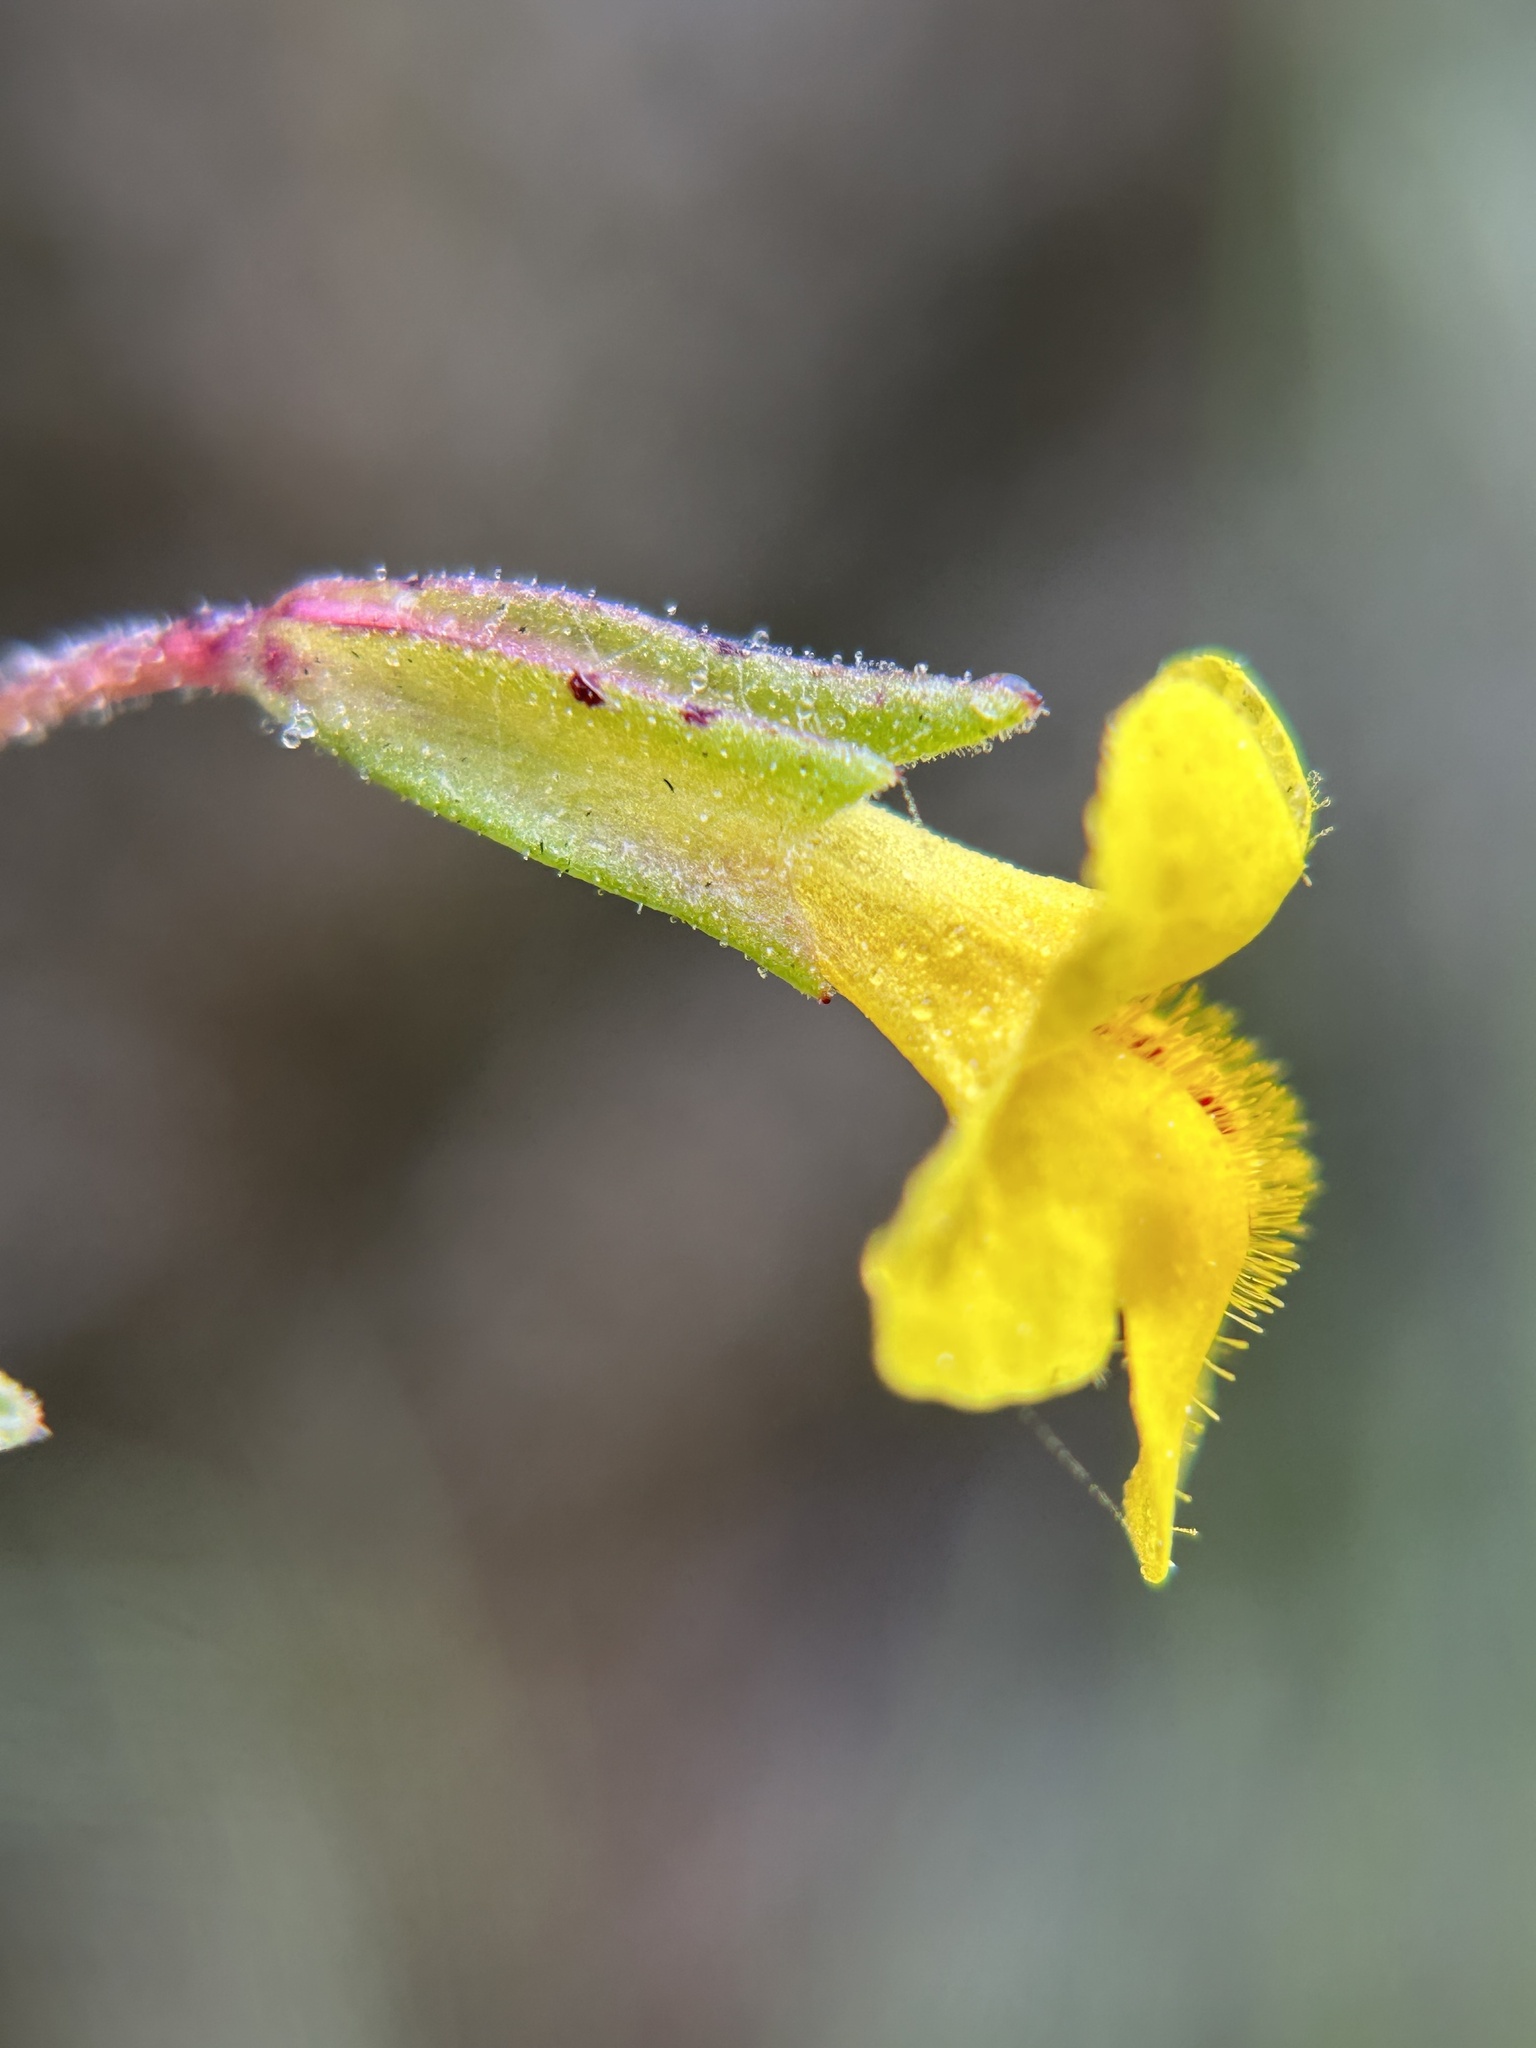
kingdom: Plantae
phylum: Tracheophyta
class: Magnoliopsida
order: Lamiales
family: Phrymaceae
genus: Erythranthe
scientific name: Erythranthe laciniata
